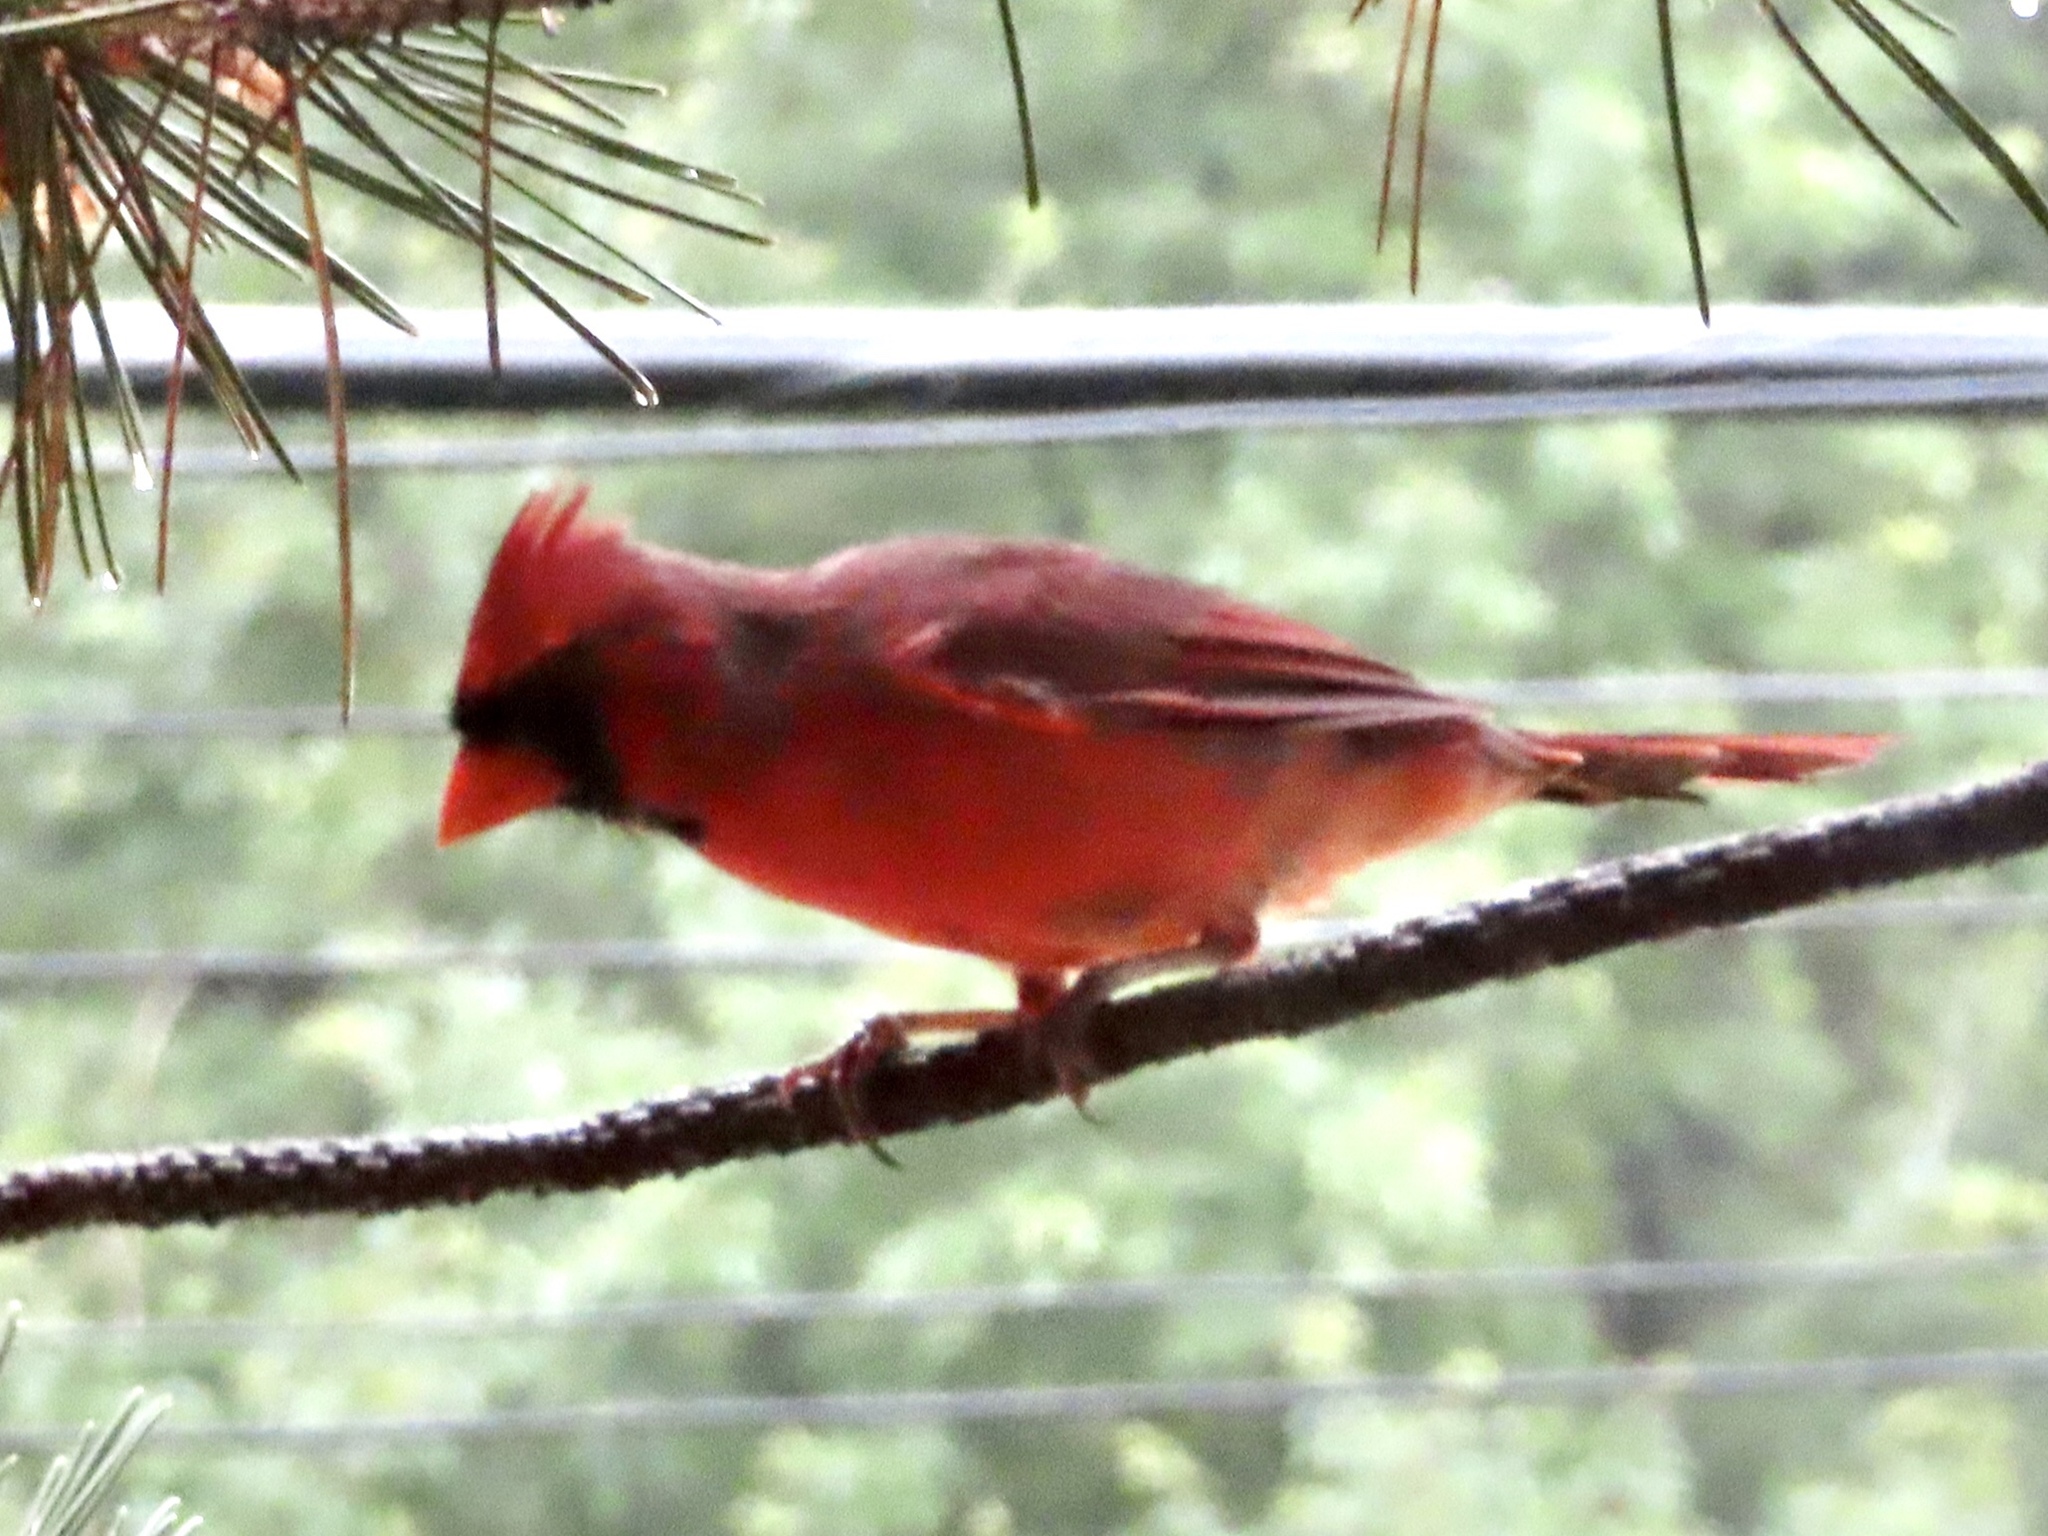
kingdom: Animalia
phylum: Chordata
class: Aves
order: Passeriformes
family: Cardinalidae
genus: Cardinalis
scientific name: Cardinalis cardinalis
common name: Northern cardinal
